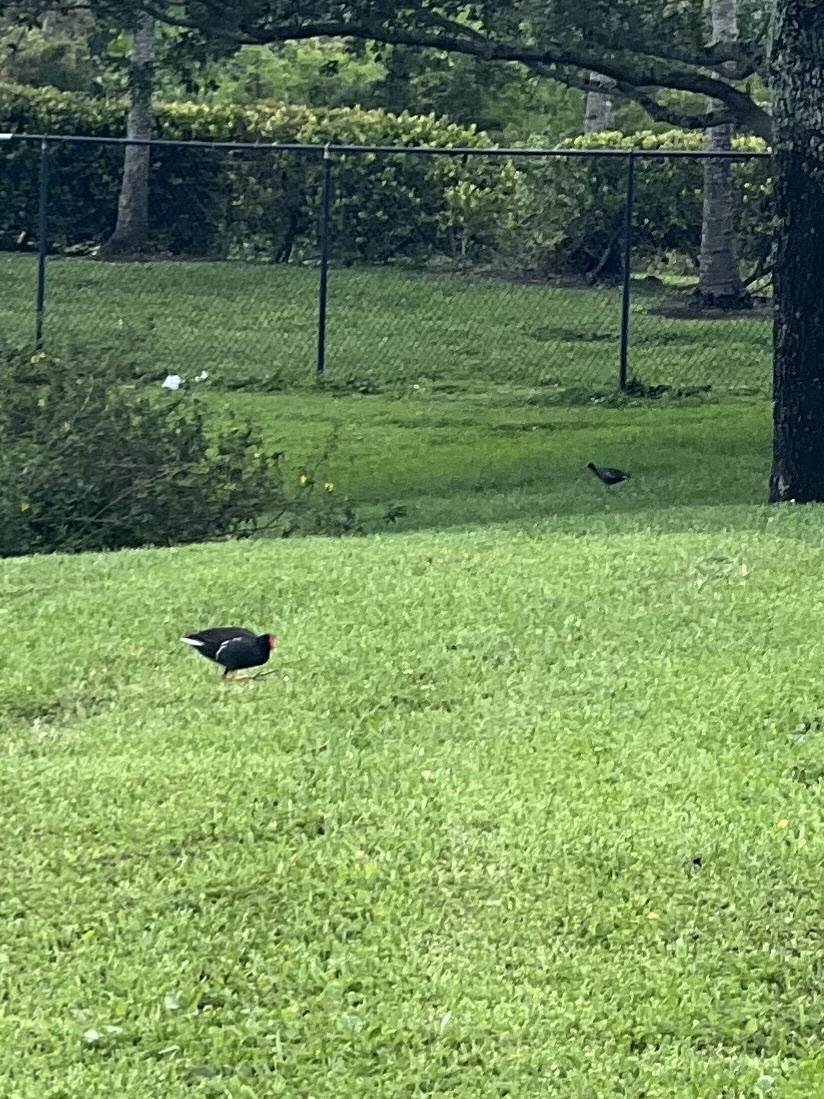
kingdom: Animalia
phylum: Chordata
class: Aves
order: Gruiformes
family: Rallidae
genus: Gallinula
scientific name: Gallinula chloropus
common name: Common moorhen
